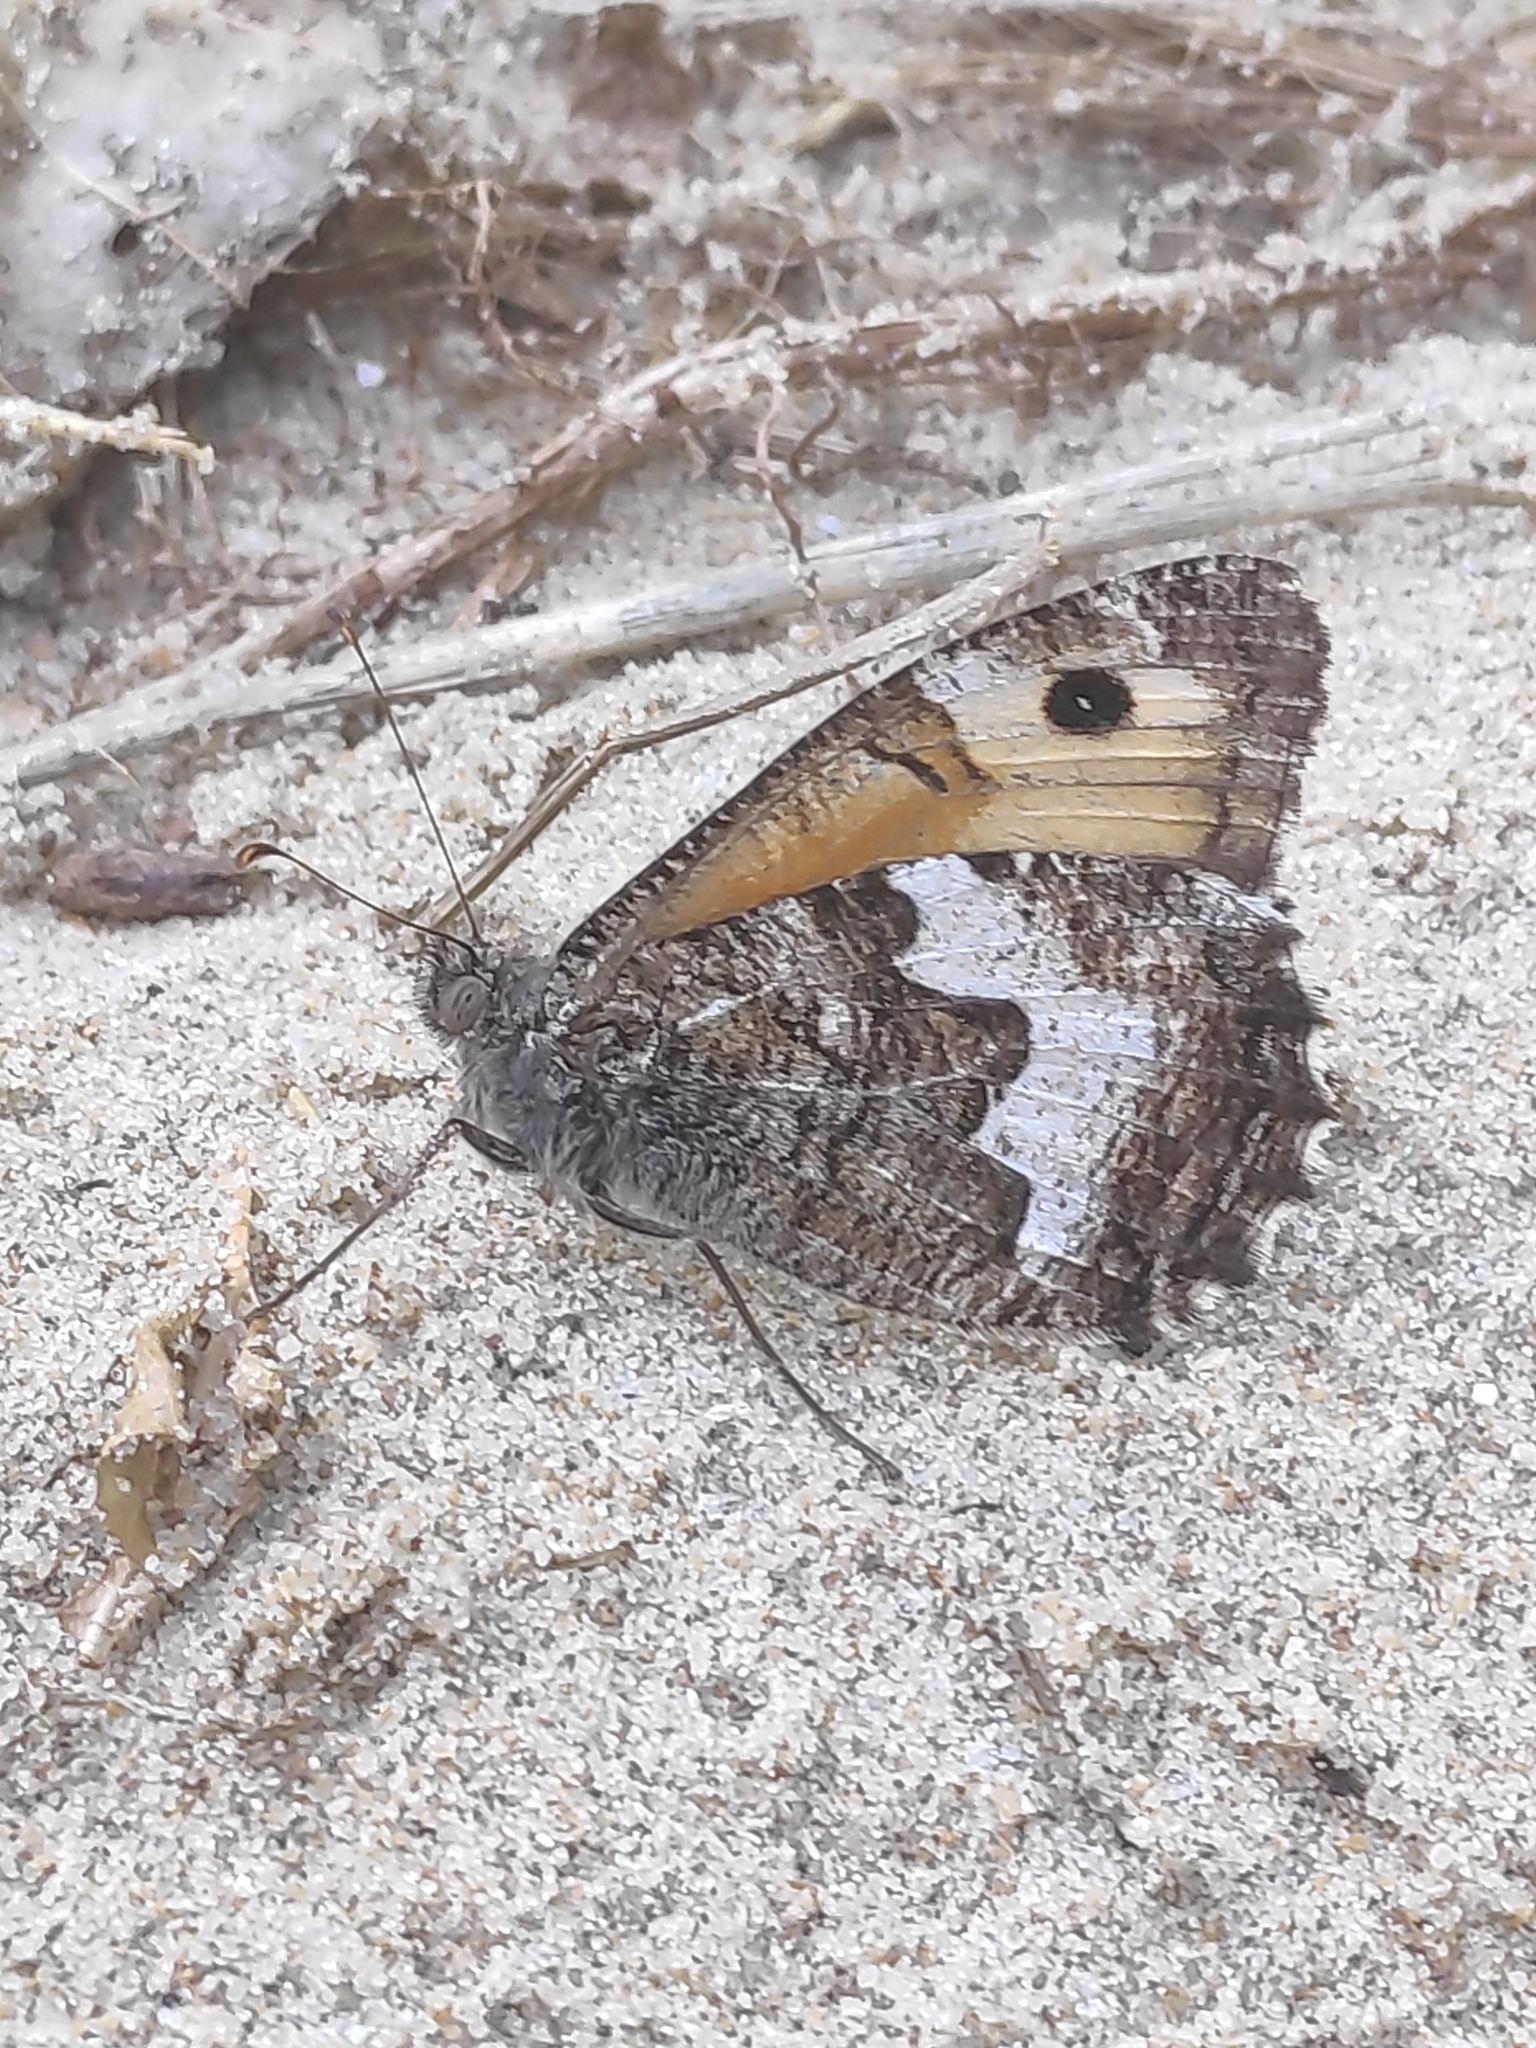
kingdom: Animalia
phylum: Arthropoda
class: Insecta
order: Lepidoptera
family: Nymphalidae
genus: Hipparchia
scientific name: Hipparchia semele
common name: Grayling
